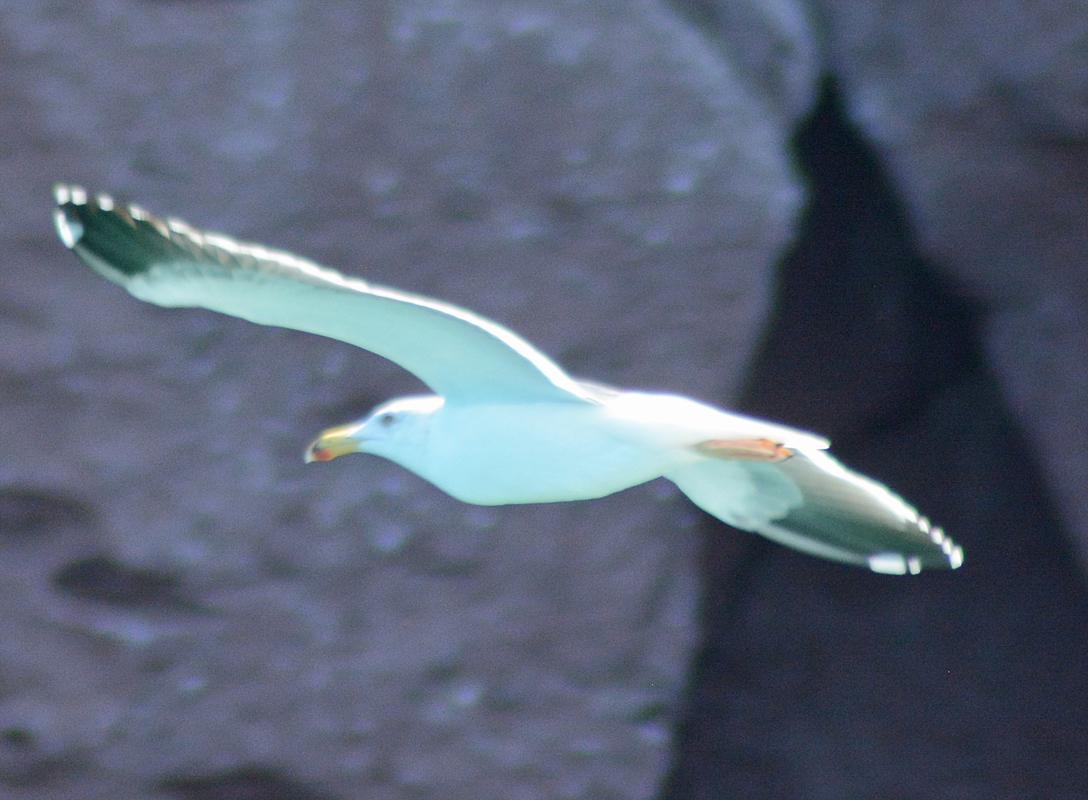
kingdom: Animalia
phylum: Chordata
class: Aves
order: Charadriiformes
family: Laridae
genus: Larus
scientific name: Larus livens
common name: Yellow-footed gull
